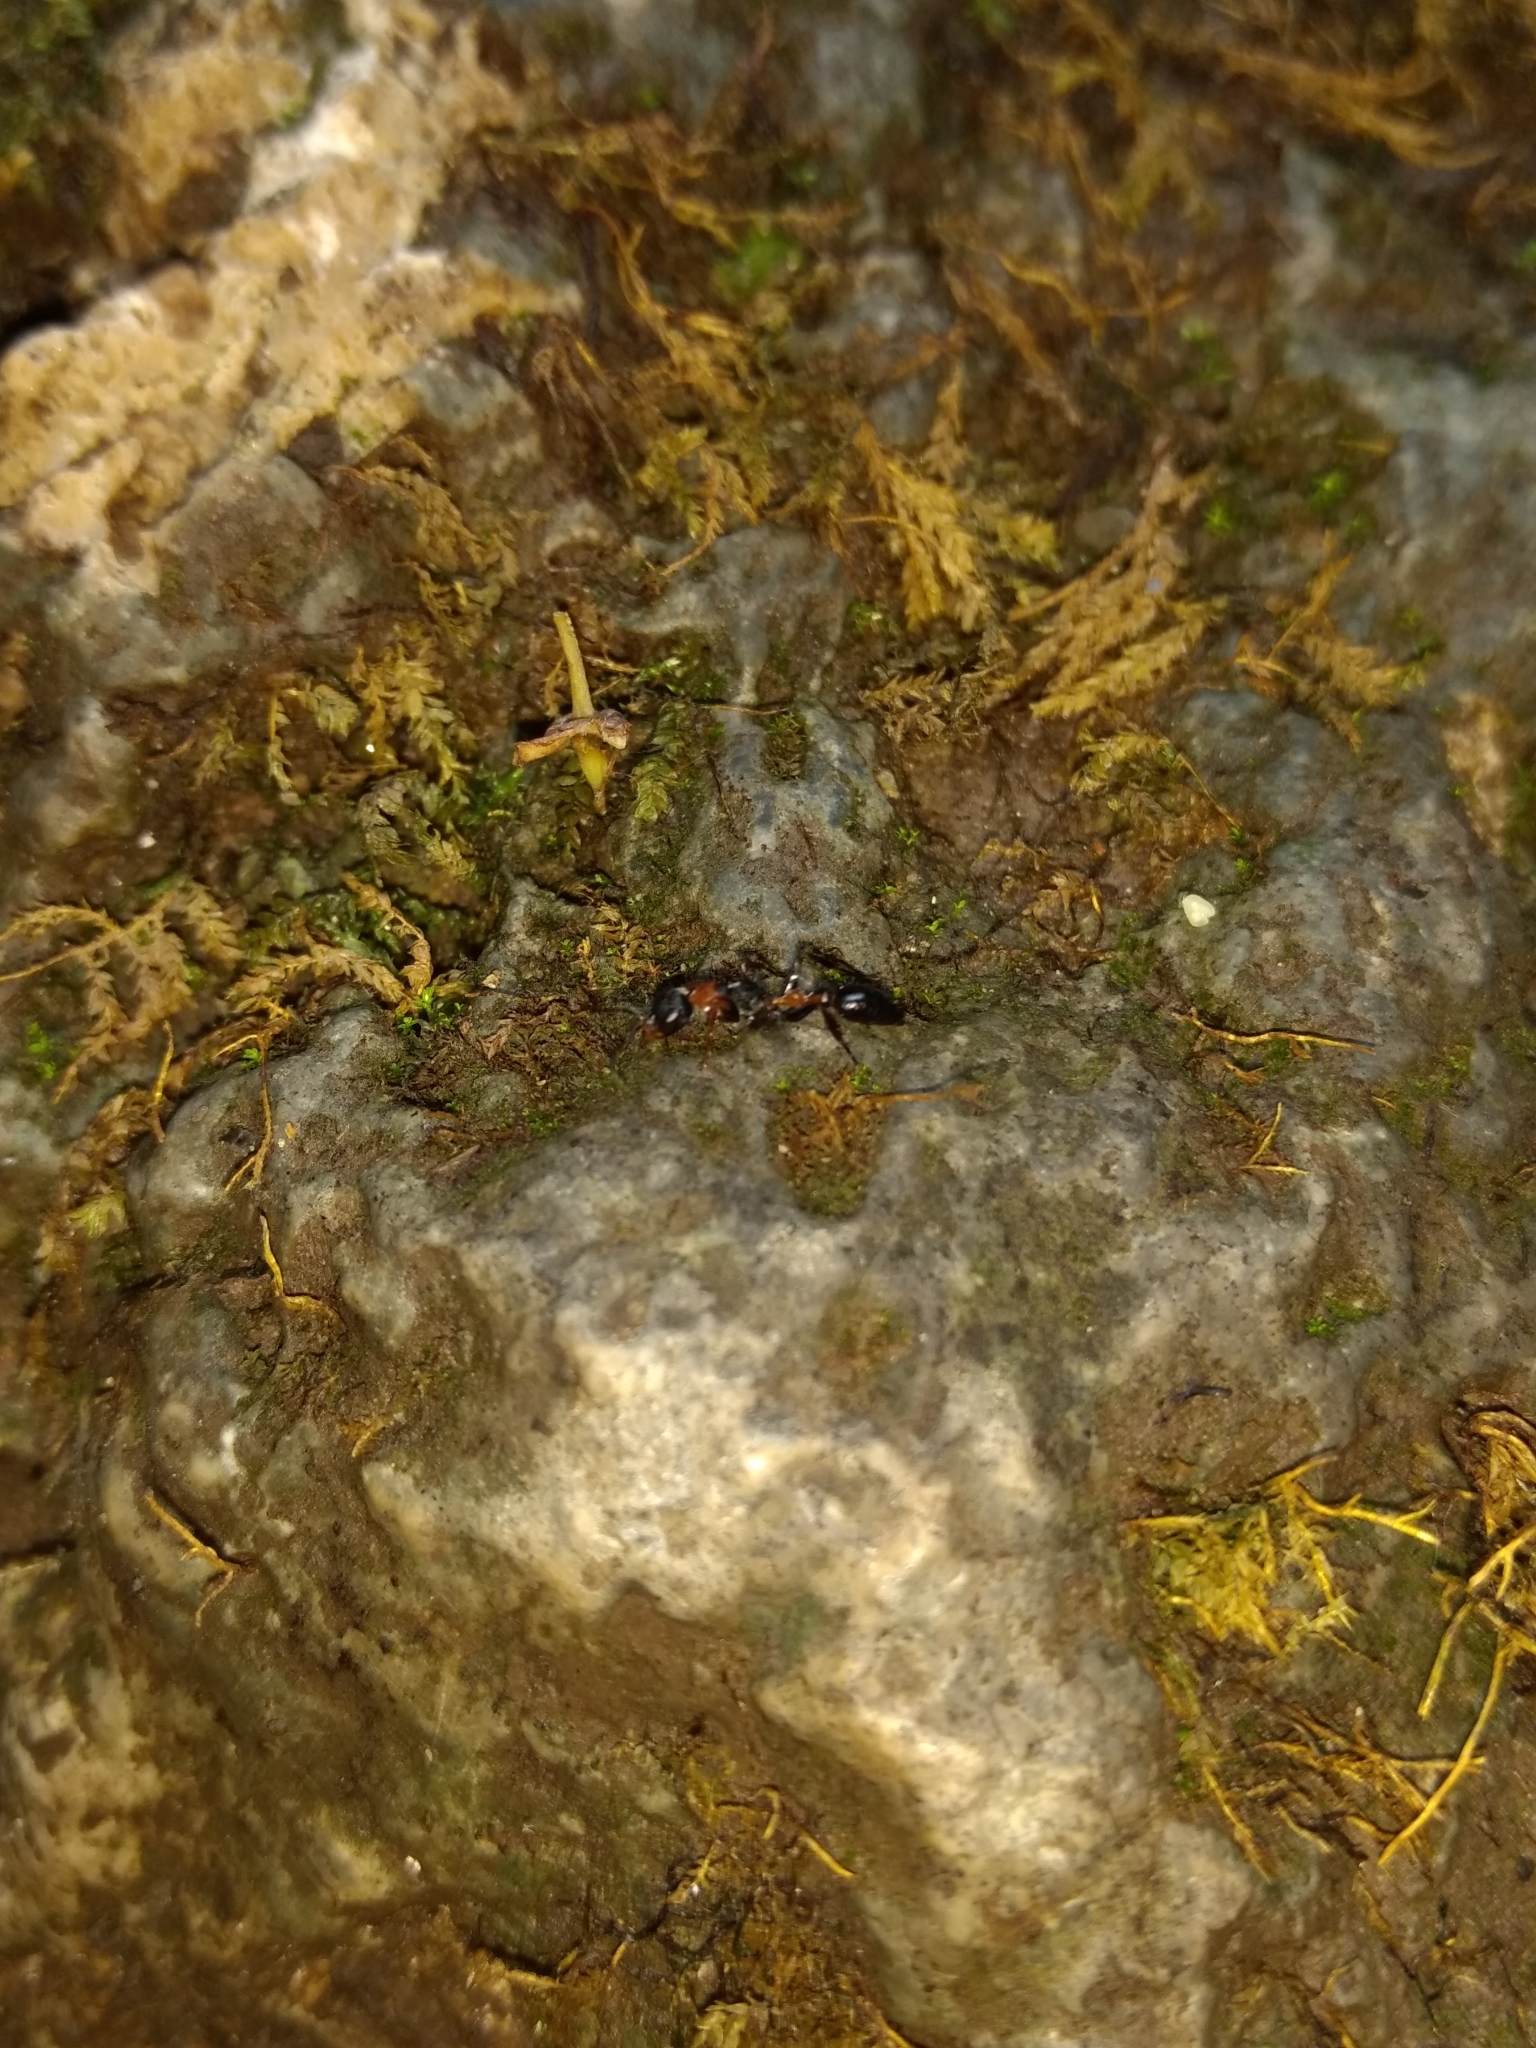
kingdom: Animalia
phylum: Arthropoda
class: Insecta
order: Hymenoptera
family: Formicidae
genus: Pseudomyrmex
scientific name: Pseudomyrmex gracilis
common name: Graceful twig ant
